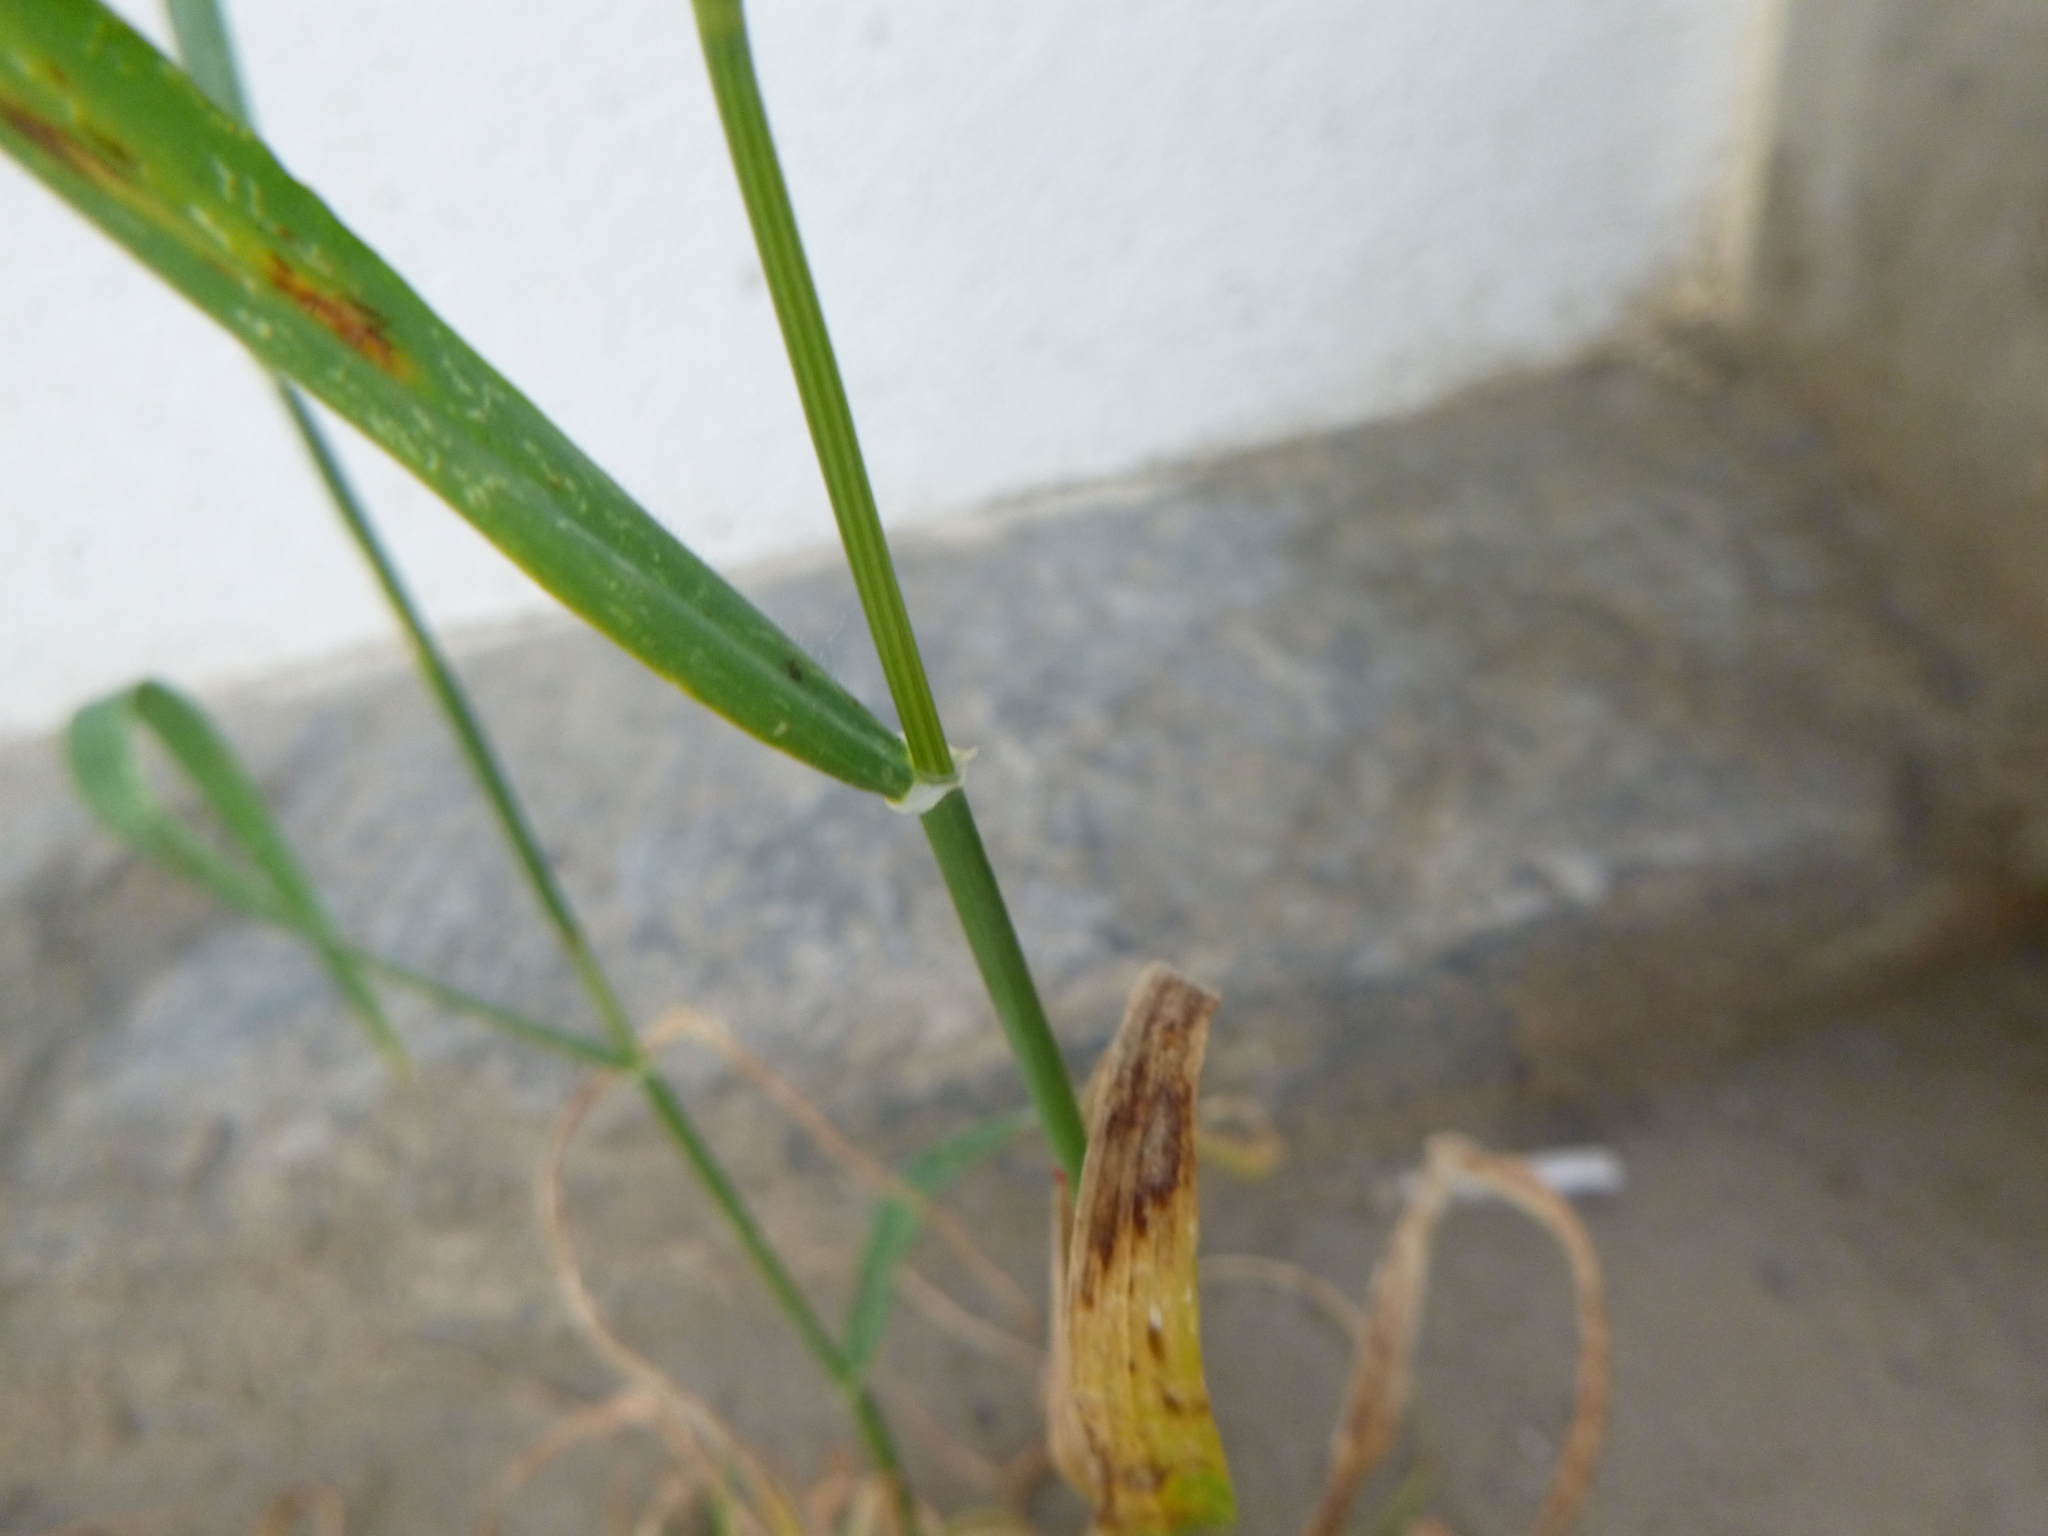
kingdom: Plantae
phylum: Tracheophyta
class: Liliopsida
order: Poales
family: Poaceae
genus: Hordeum
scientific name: Hordeum murinum
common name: Wall barley
